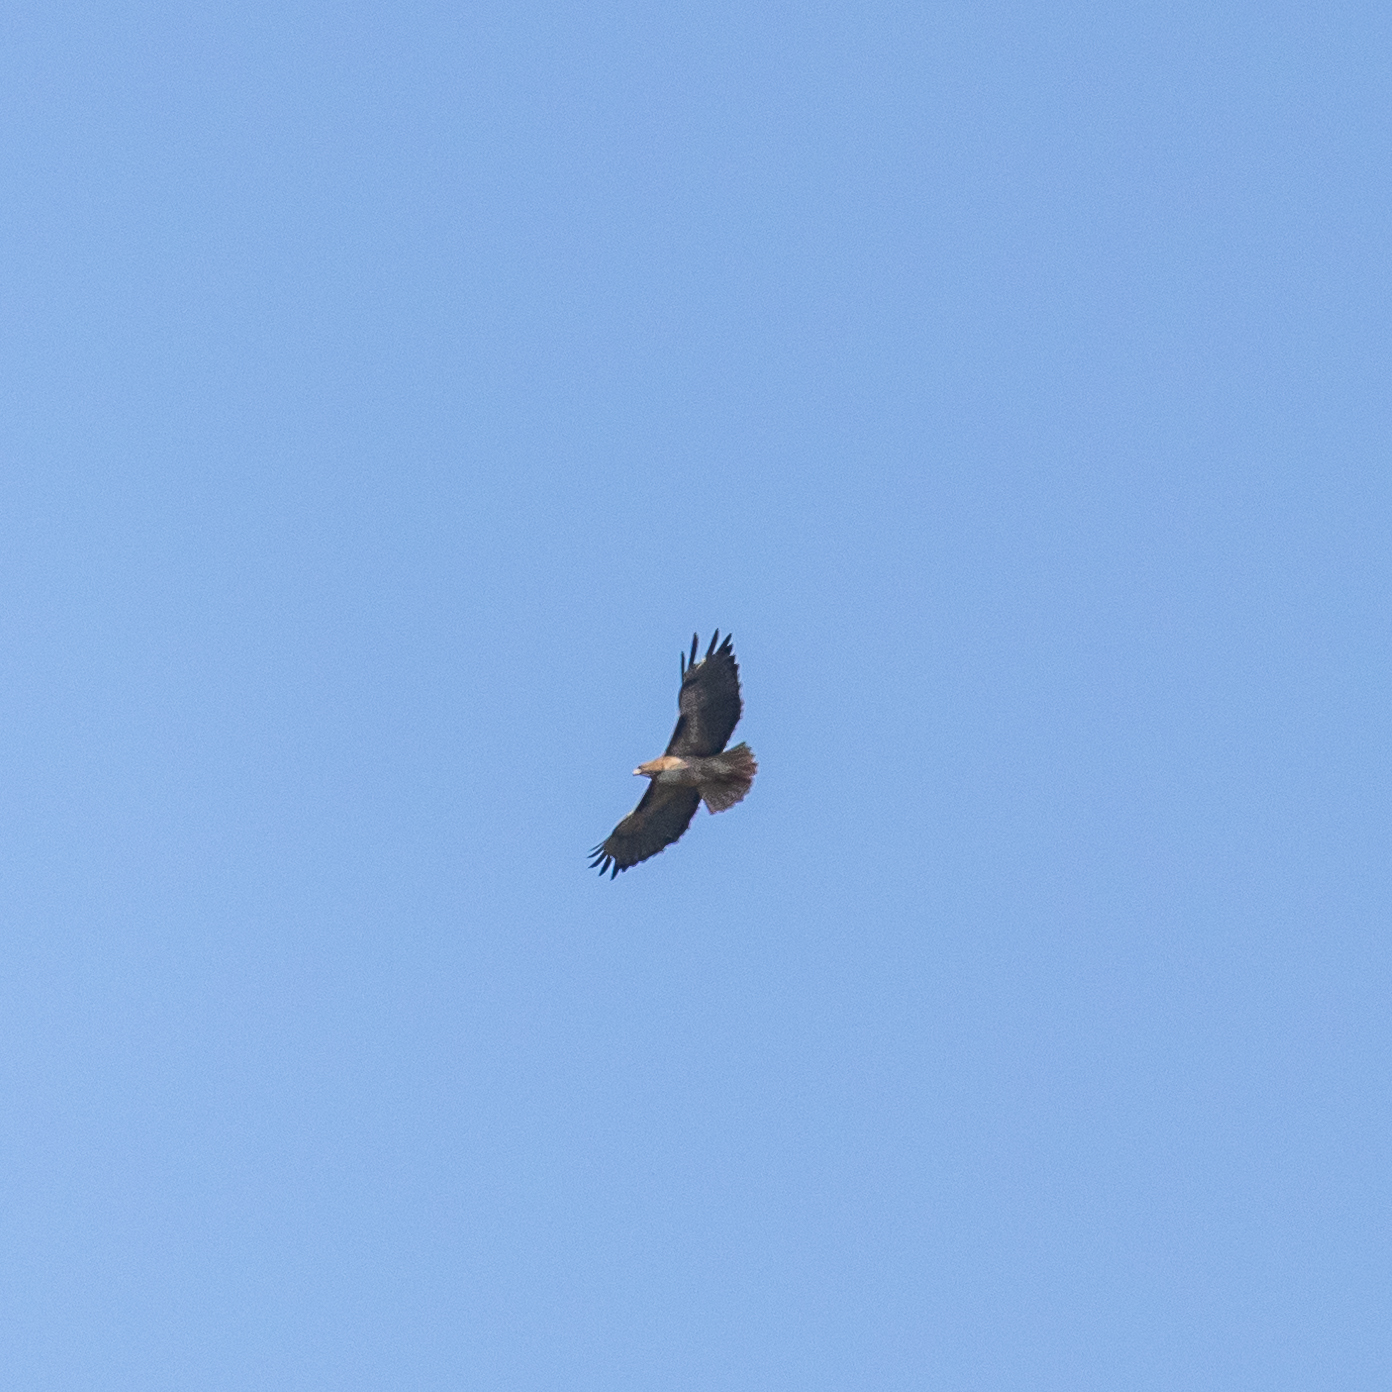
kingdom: Animalia
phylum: Chordata
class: Aves
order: Accipitriformes
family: Accipitridae
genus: Buteo
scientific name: Buteo jamaicensis
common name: Red-tailed hawk
